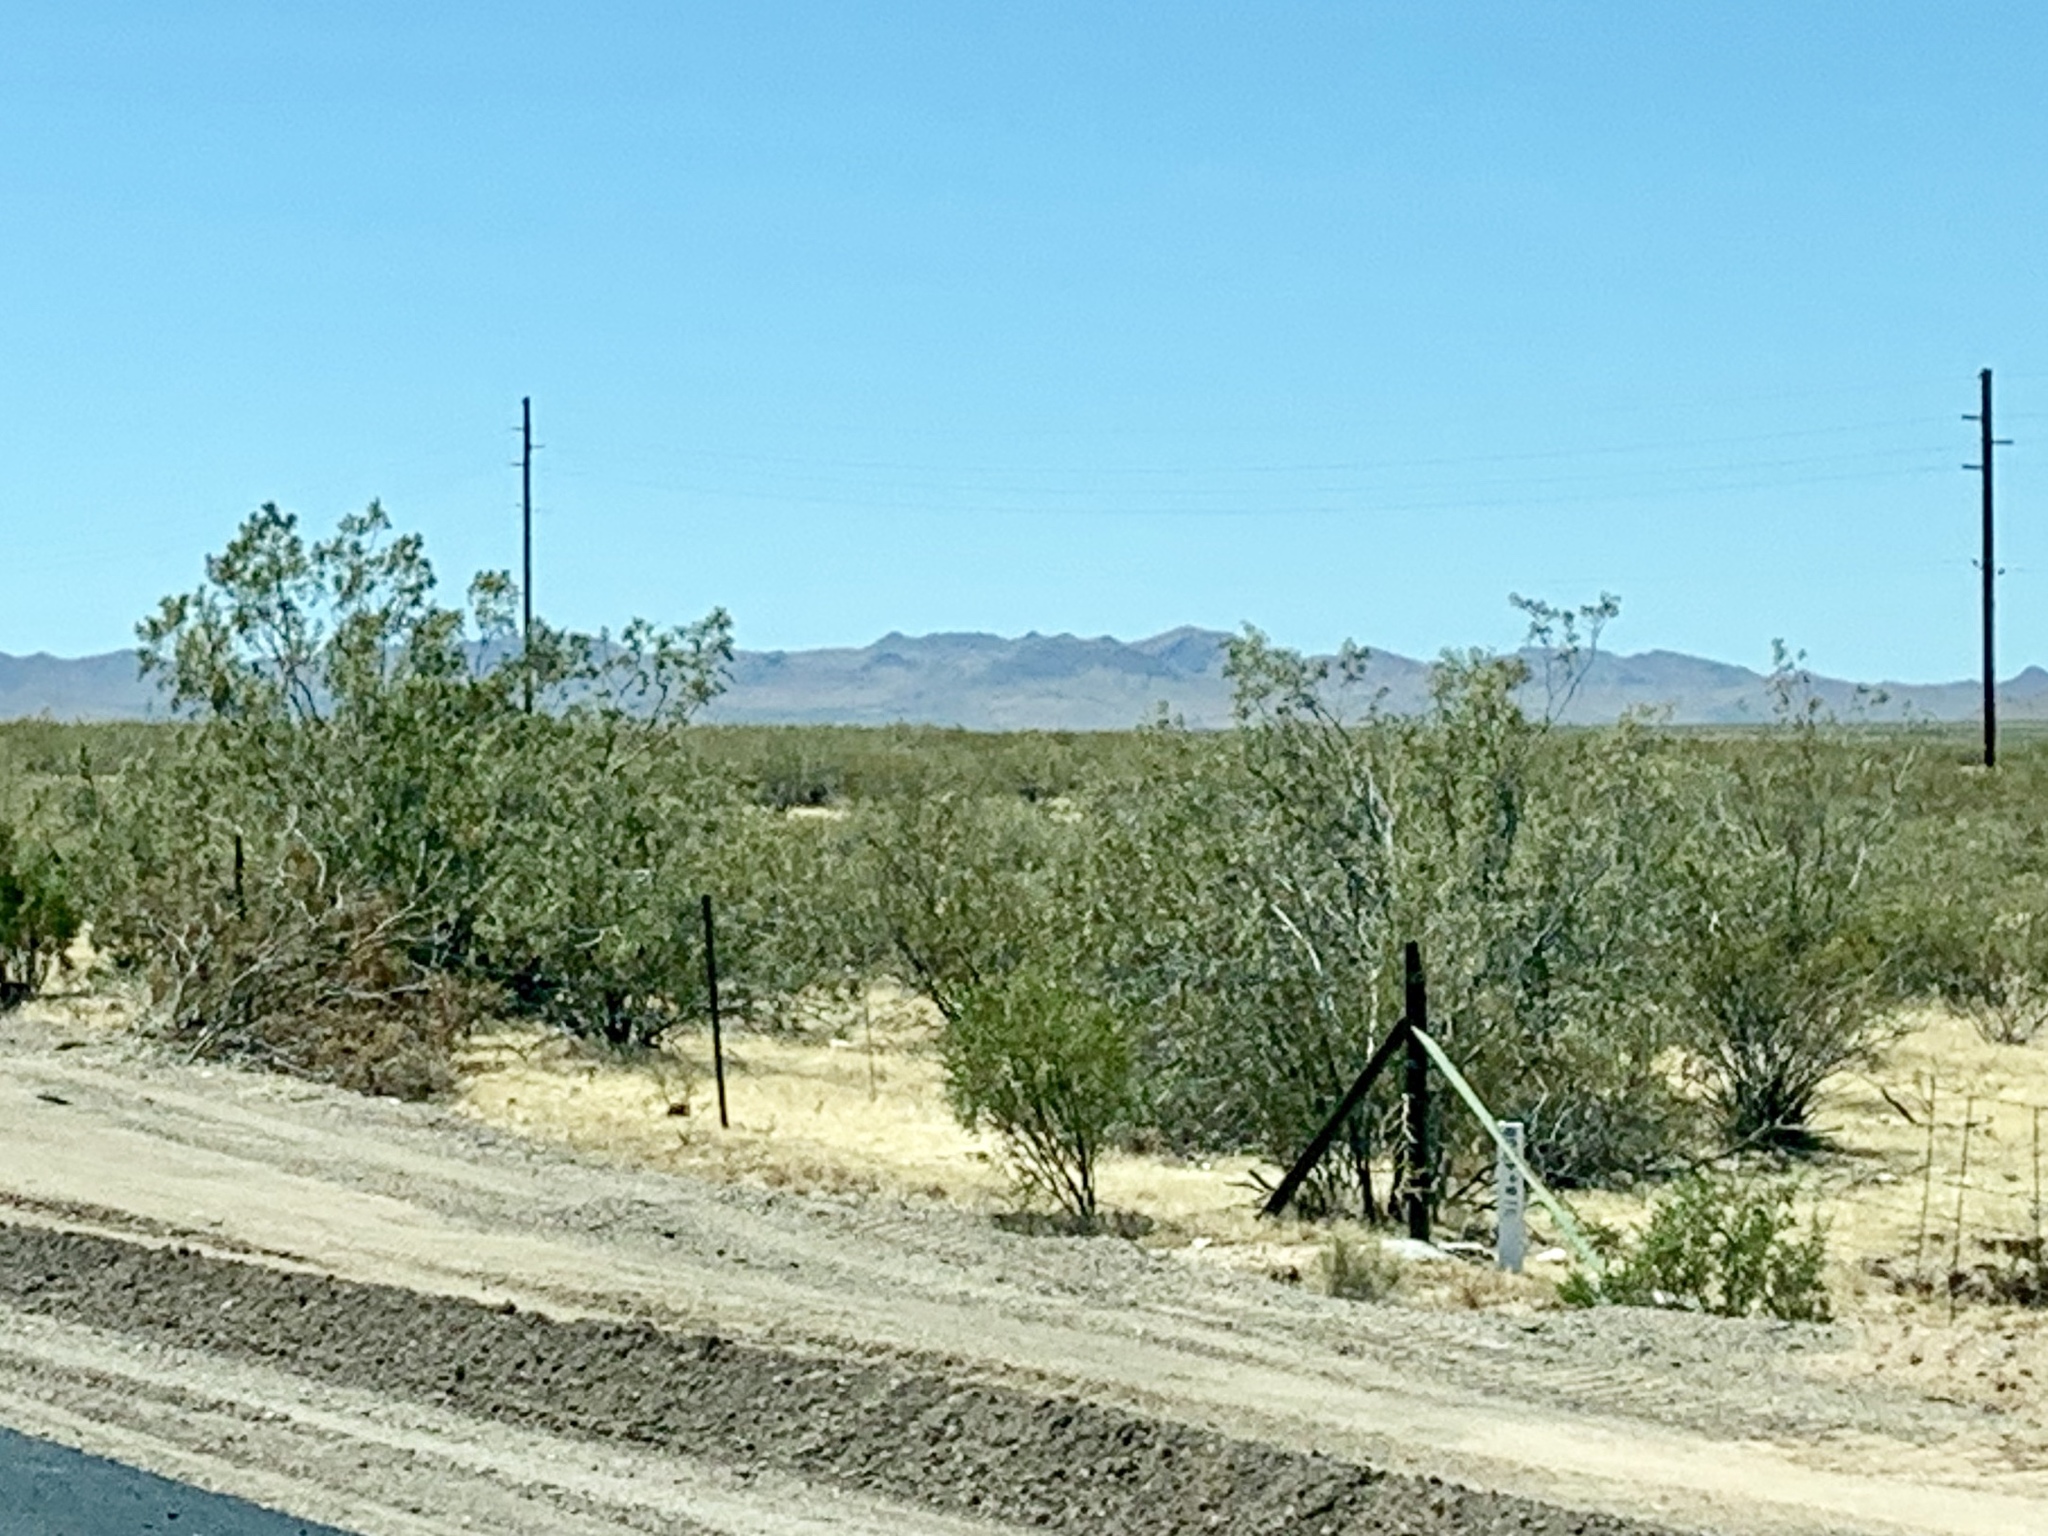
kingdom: Plantae
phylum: Tracheophyta
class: Magnoliopsida
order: Zygophyllales
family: Zygophyllaceae
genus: Larrea
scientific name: Larrea tridentata
